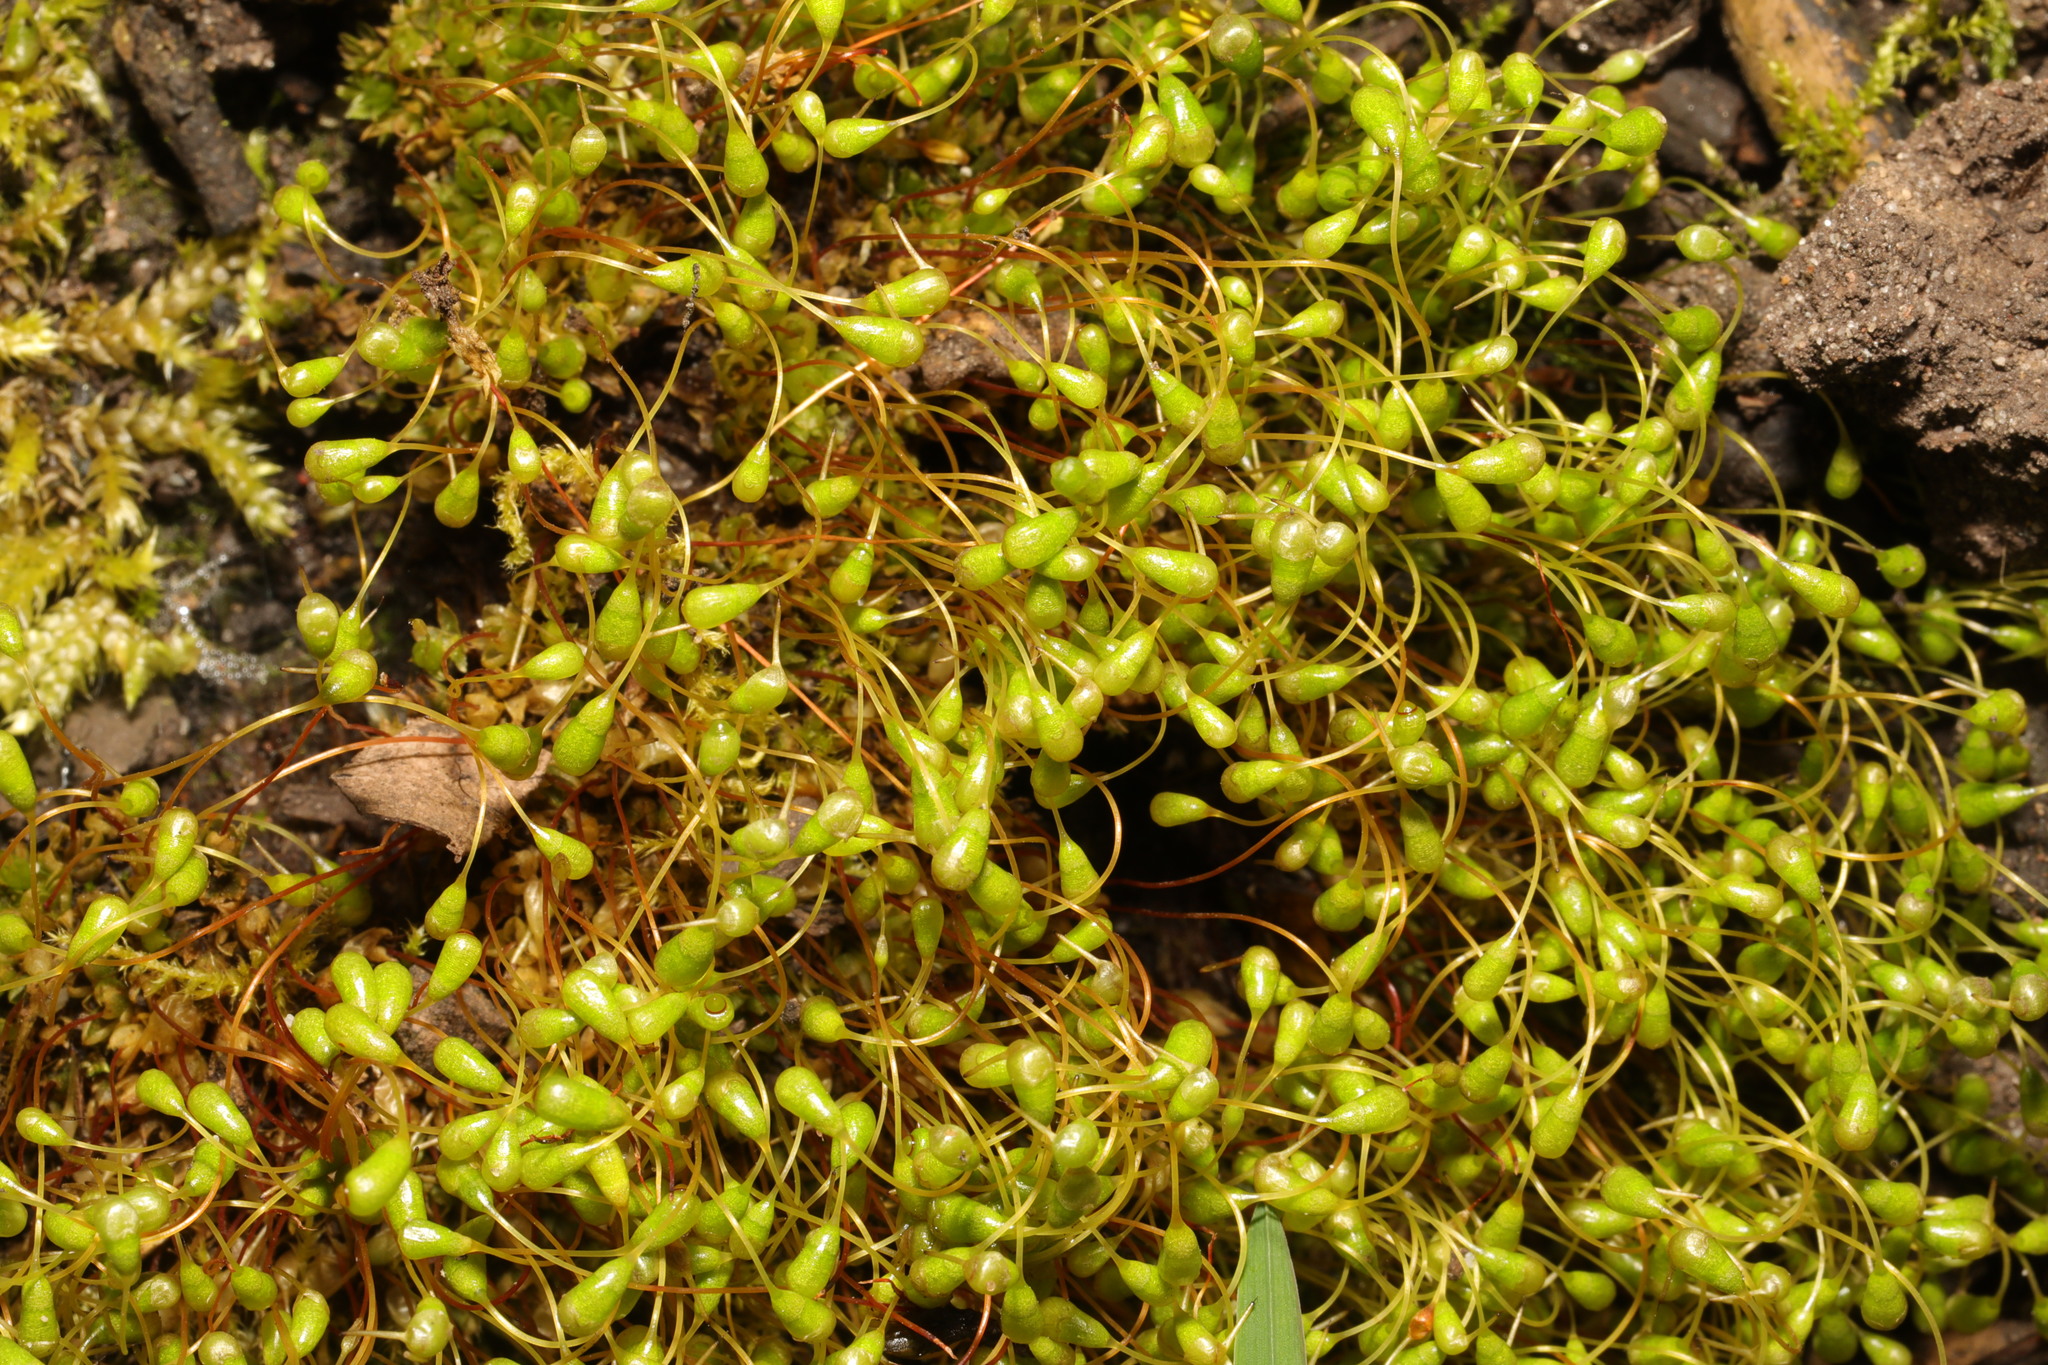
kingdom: Plantae
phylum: Bryophyta
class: Bryopsida
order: Funariales
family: Funariaceae
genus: Funaria
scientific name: Funaria hygrometrica
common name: Common cord moss
